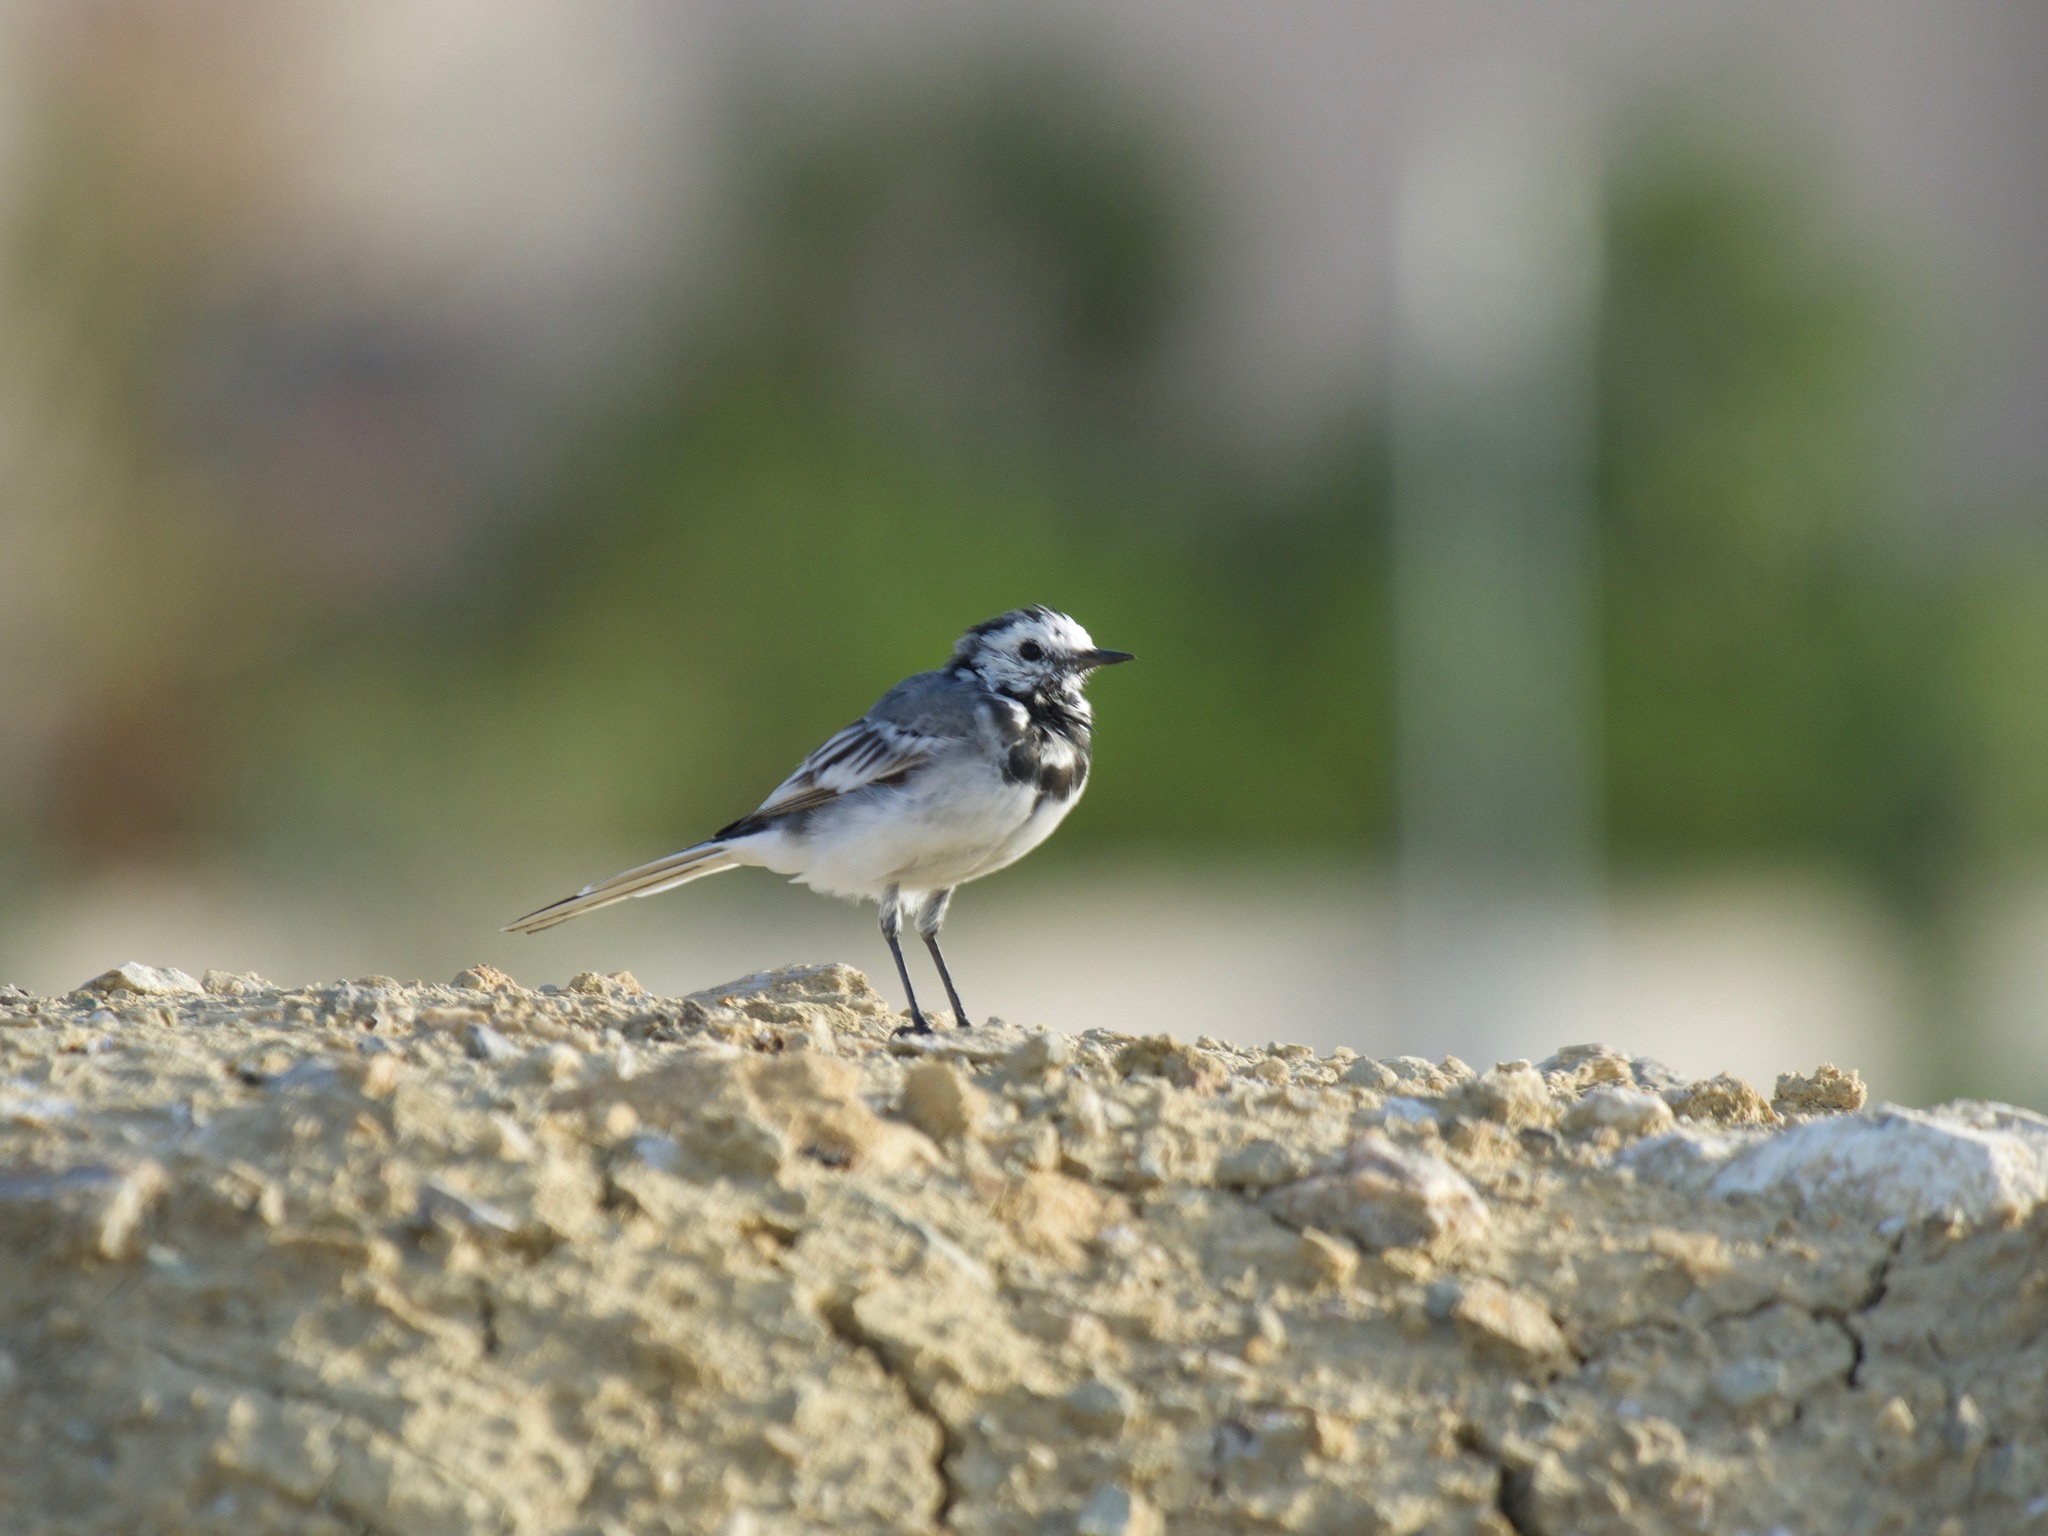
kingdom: Animalia
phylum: Chordata
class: Aves
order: Passeriformes
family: Motacillidae
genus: Motacilla
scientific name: Motacilla alba
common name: White wagtail
